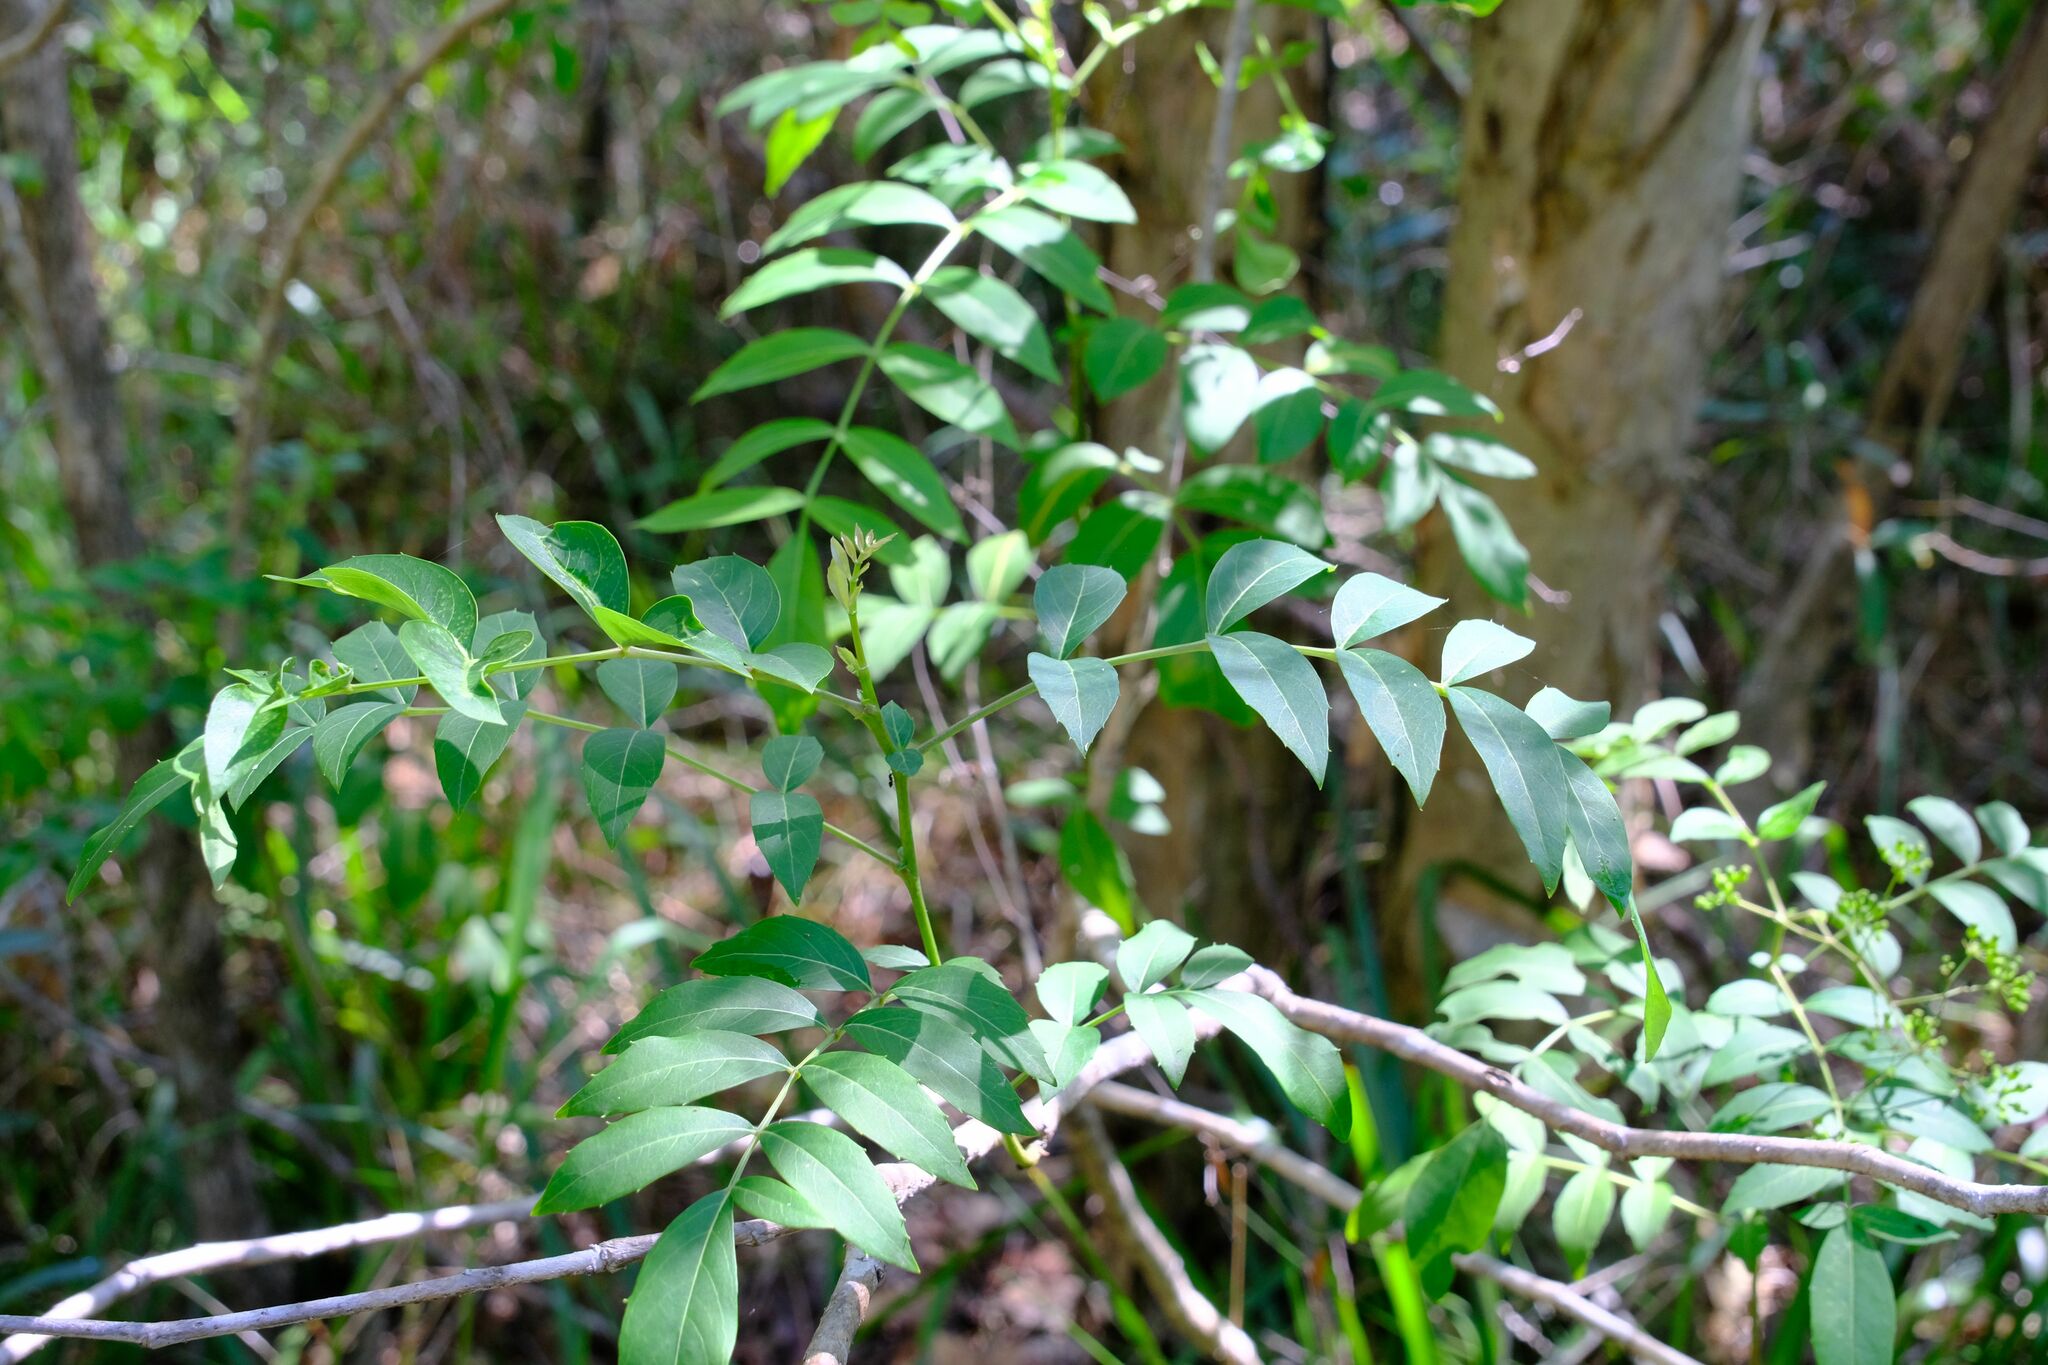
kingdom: Plantae
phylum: Tracheophyta
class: Magnoliopsida
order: Apiales
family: Araliaceae
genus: Polyscias
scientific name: Polyscias sambucifolia
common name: Elderberry-ash
